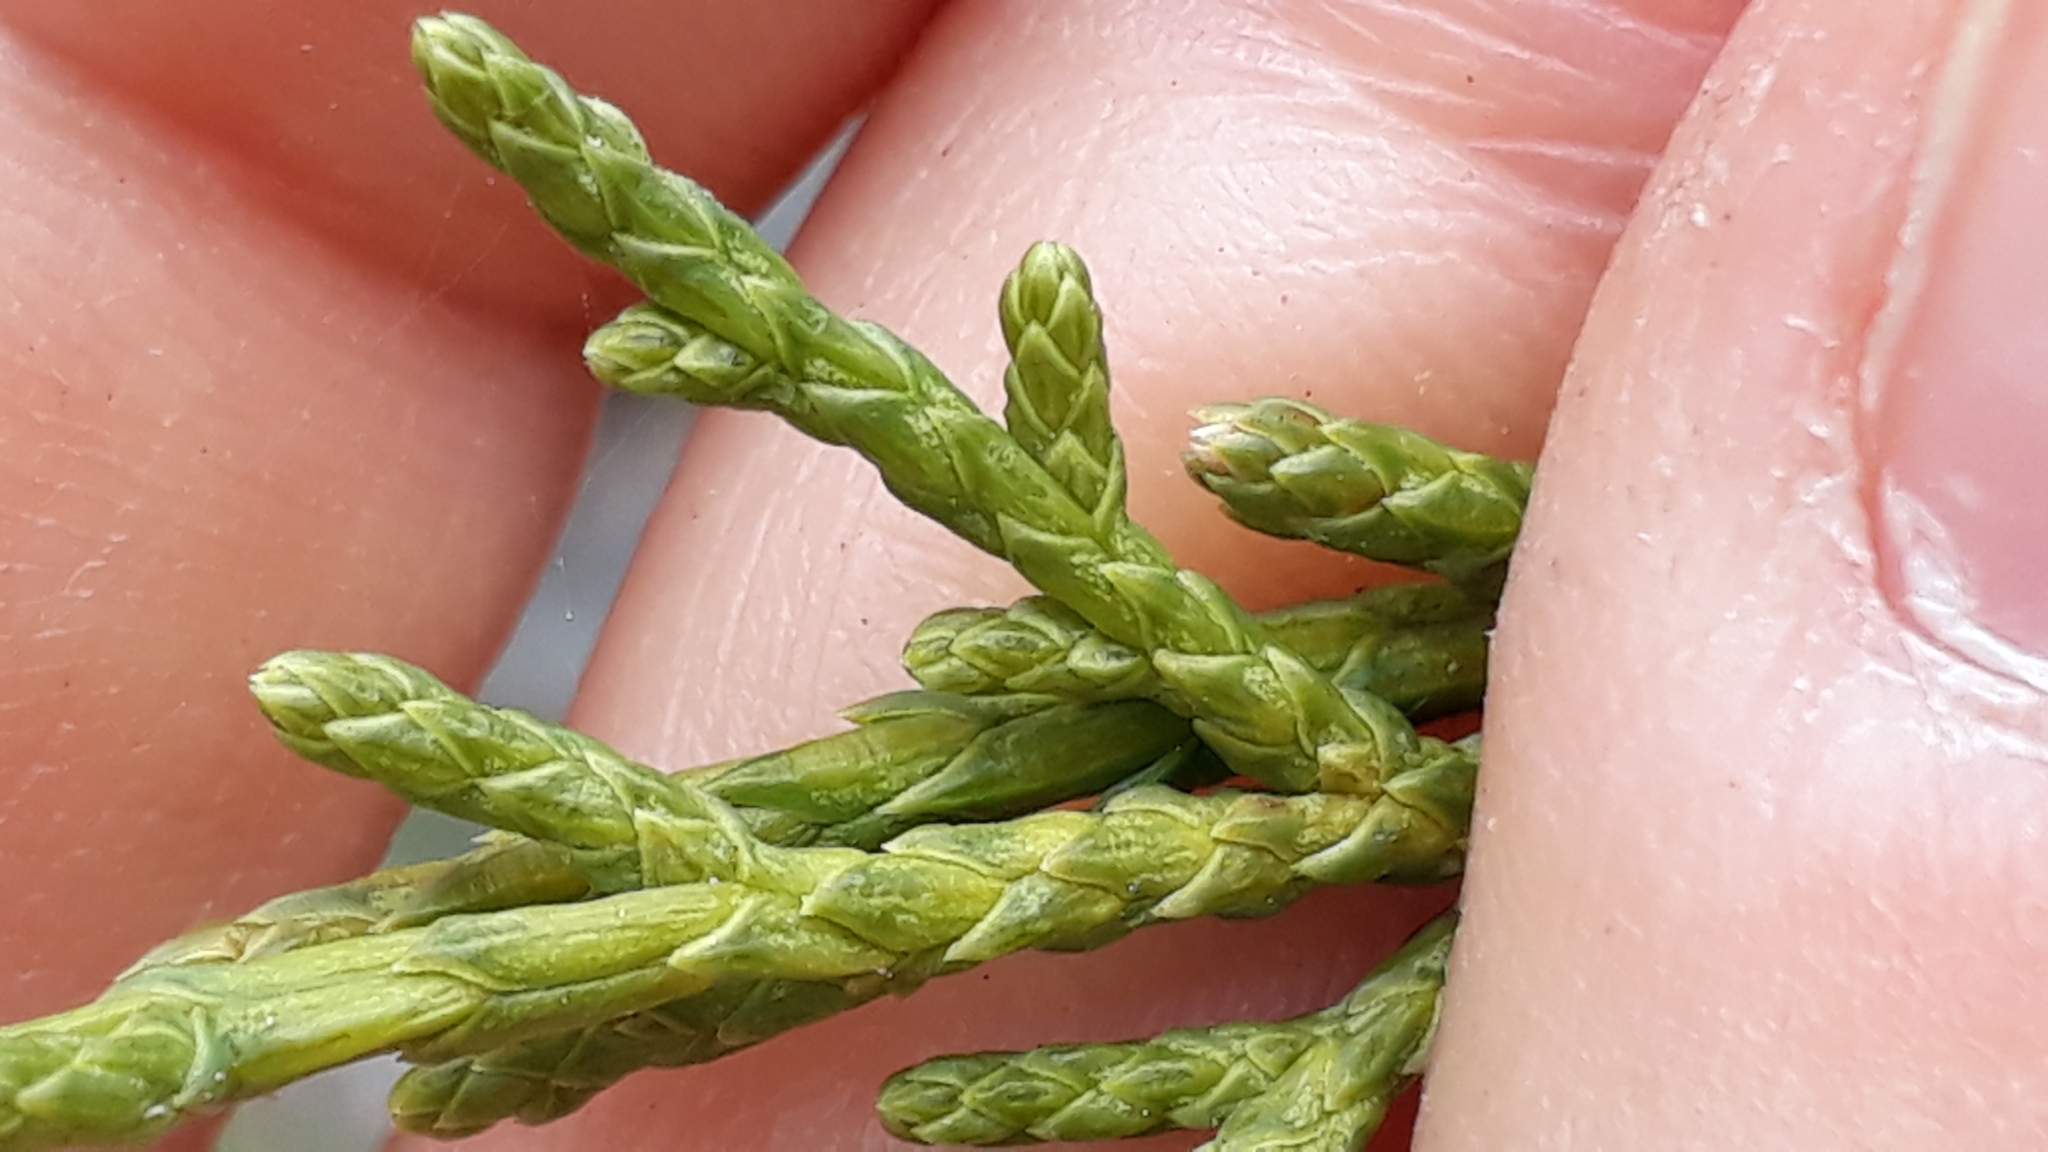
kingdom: Plantae
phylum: Tracheophyta
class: Pinopsida
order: Pinales
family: Cupressaceae
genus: Juniperus
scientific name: Juniperus canariensis
